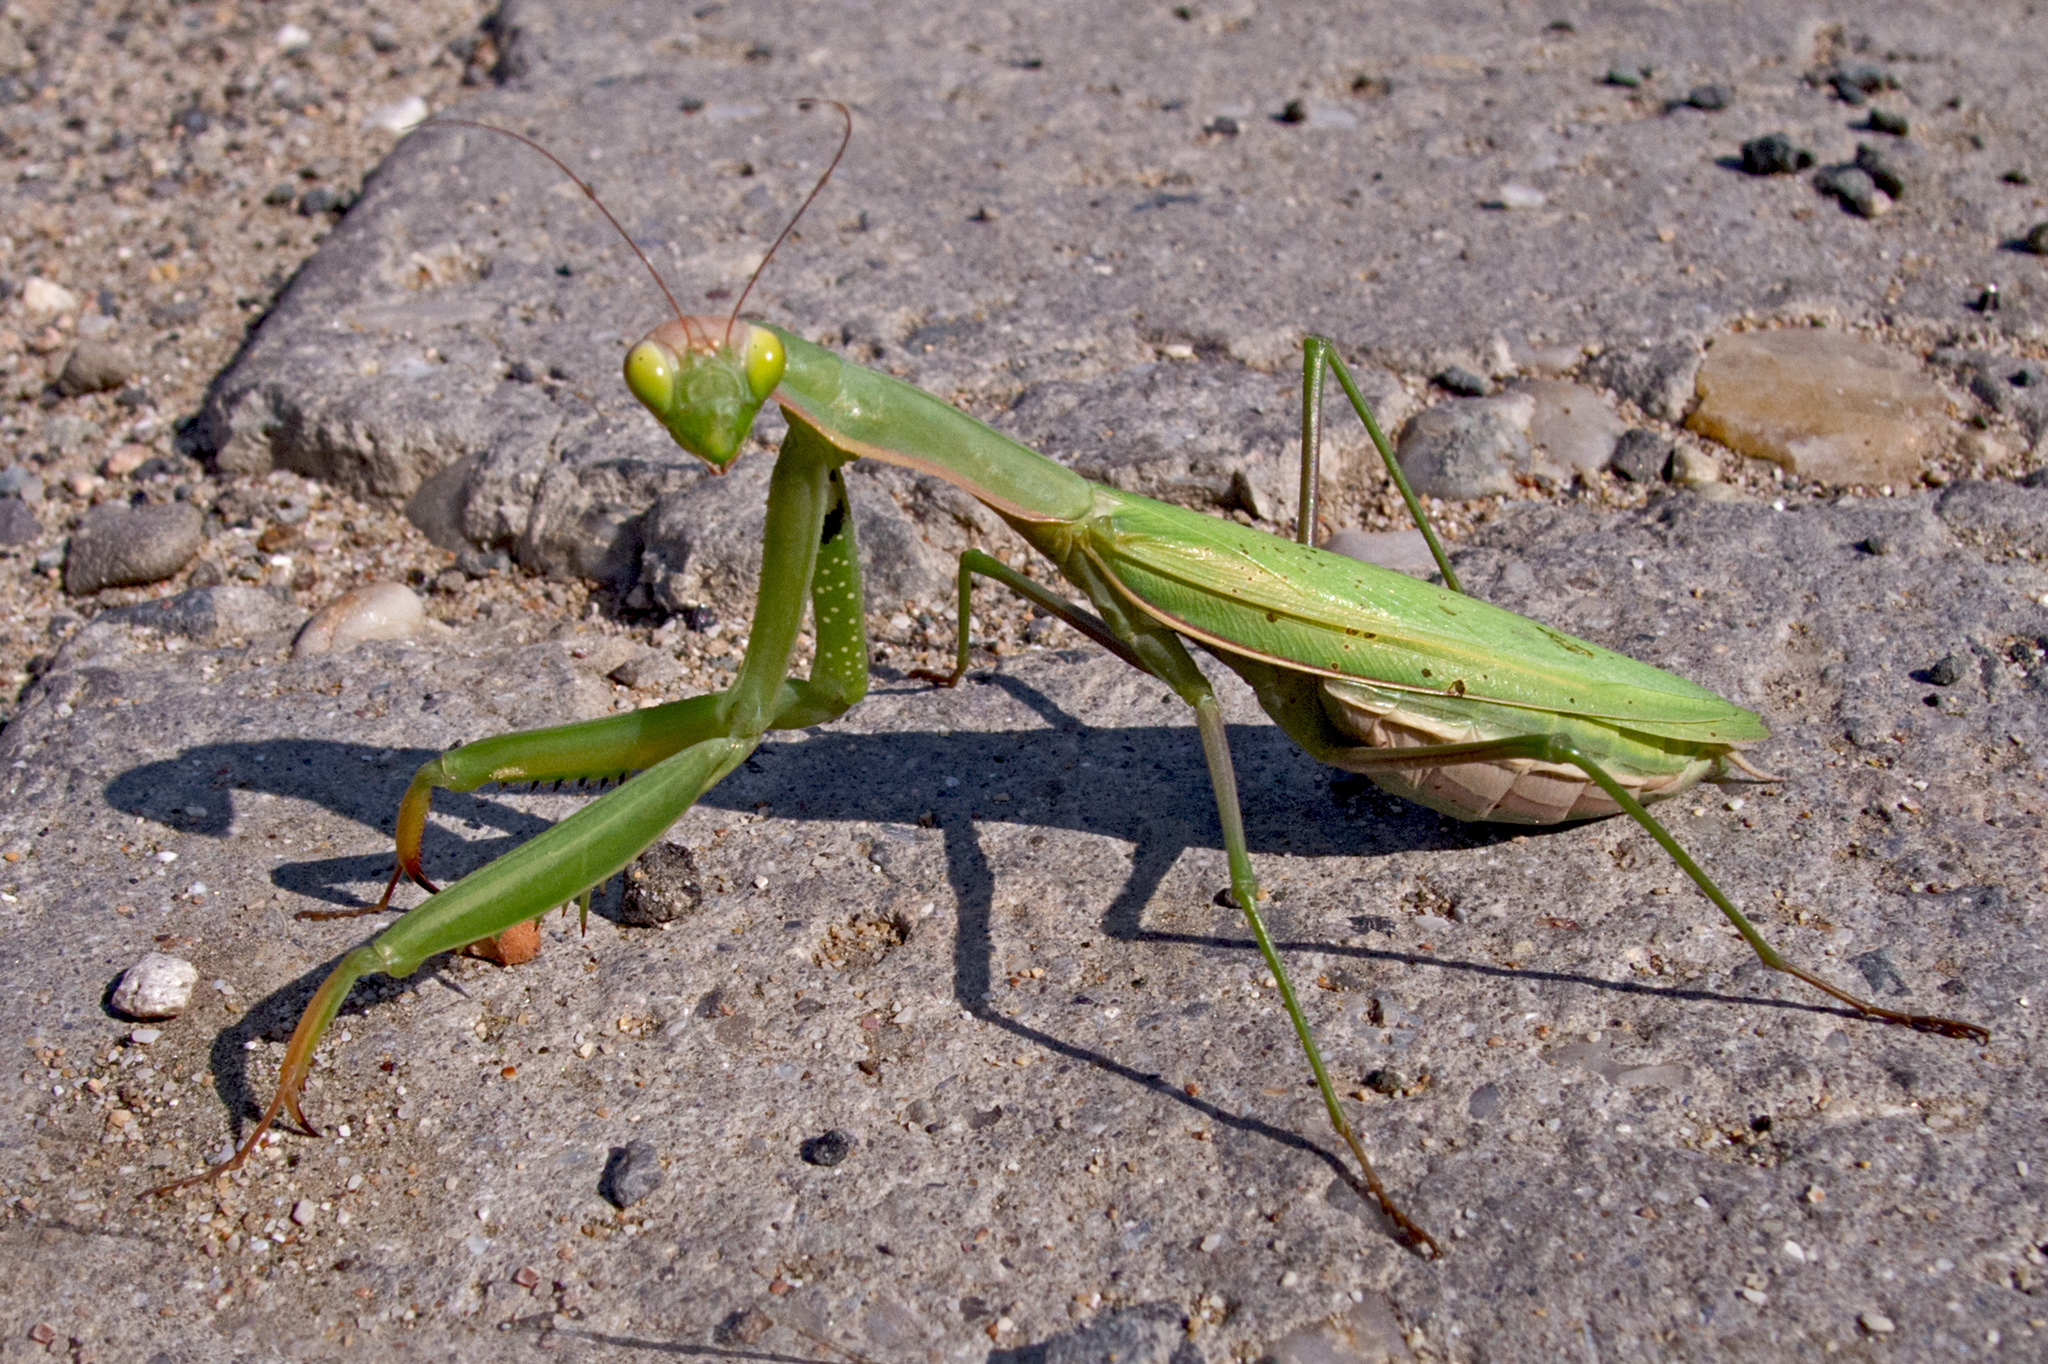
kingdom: Animalia
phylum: Arthropoda
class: Insecta
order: Mantodea
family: Mantidae
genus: Mantis
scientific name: Mantis religiosa
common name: Praying mantis
